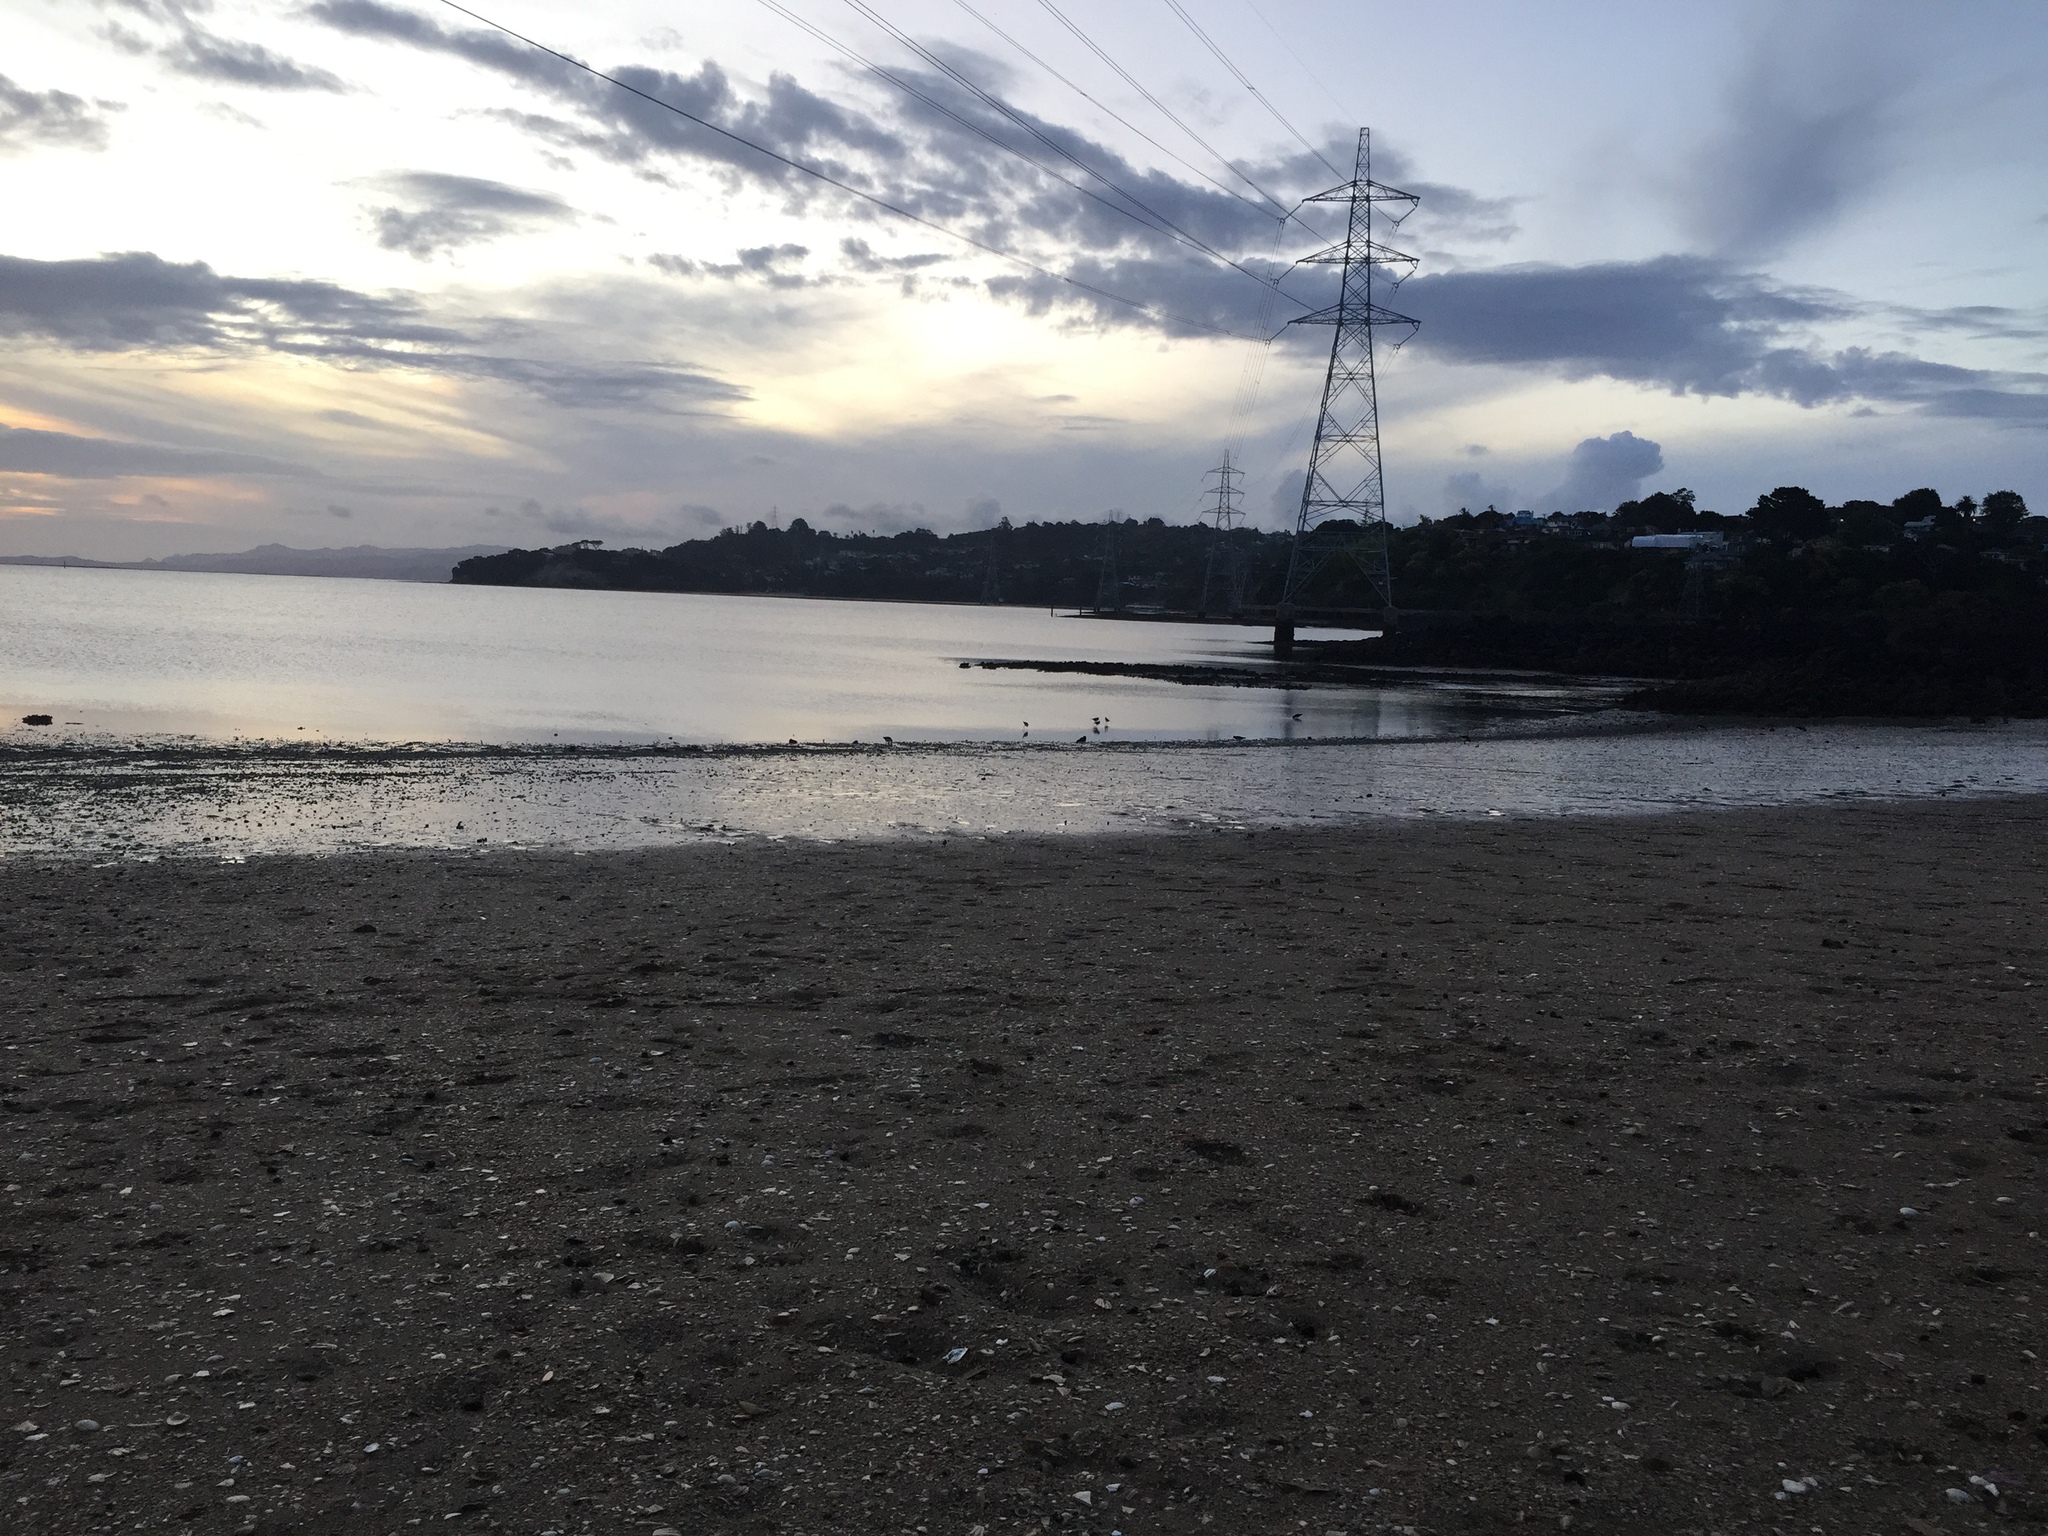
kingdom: Animalia
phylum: Chordata
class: Aves
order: Charadriiformes
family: Recurvirostridae
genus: Himantopus
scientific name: Himantopus leucocephalus
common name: White-headed stilt
